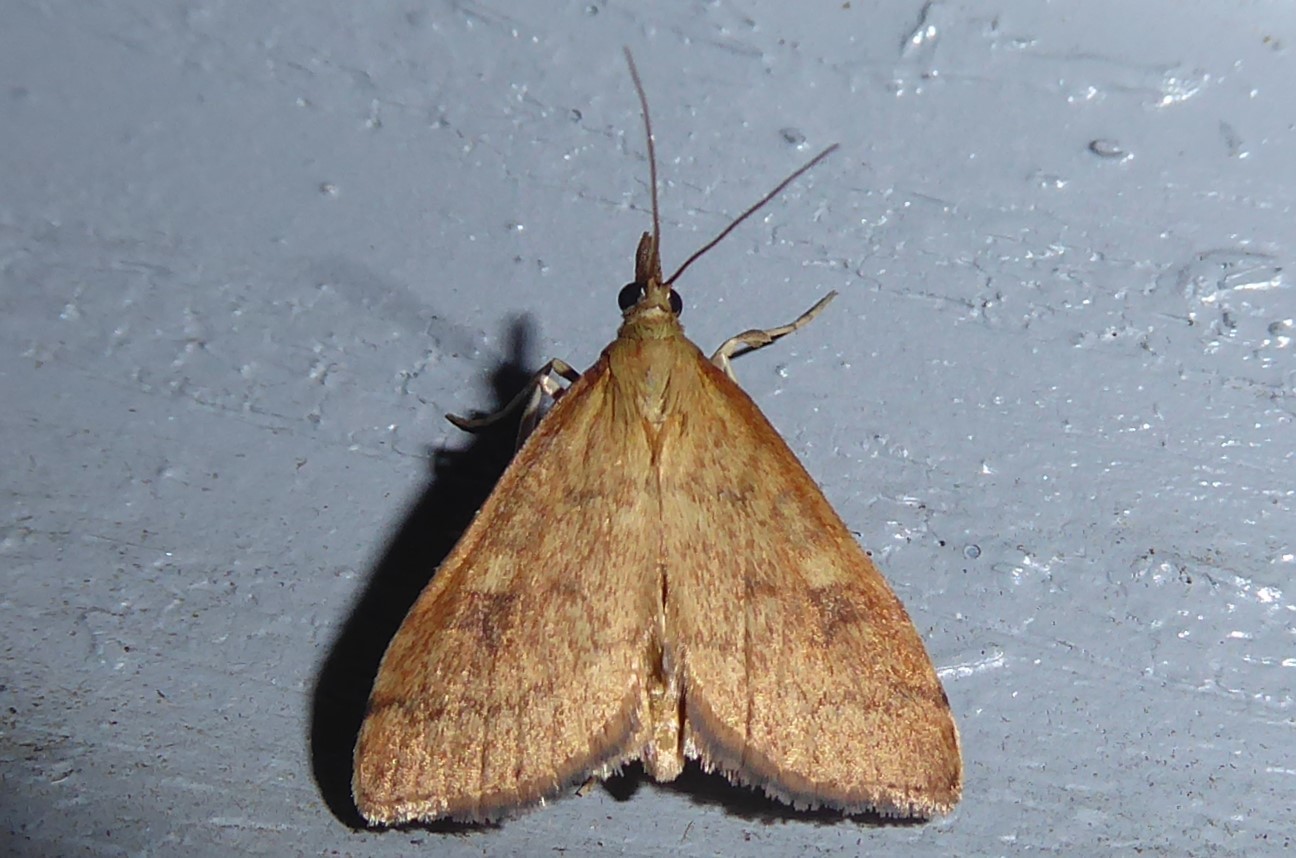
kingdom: Animalia
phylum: Arthropoda
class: Insecta
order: Lepidoptera
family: Crambidae
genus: Udea
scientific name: Udea Mnesictena flavidalis
